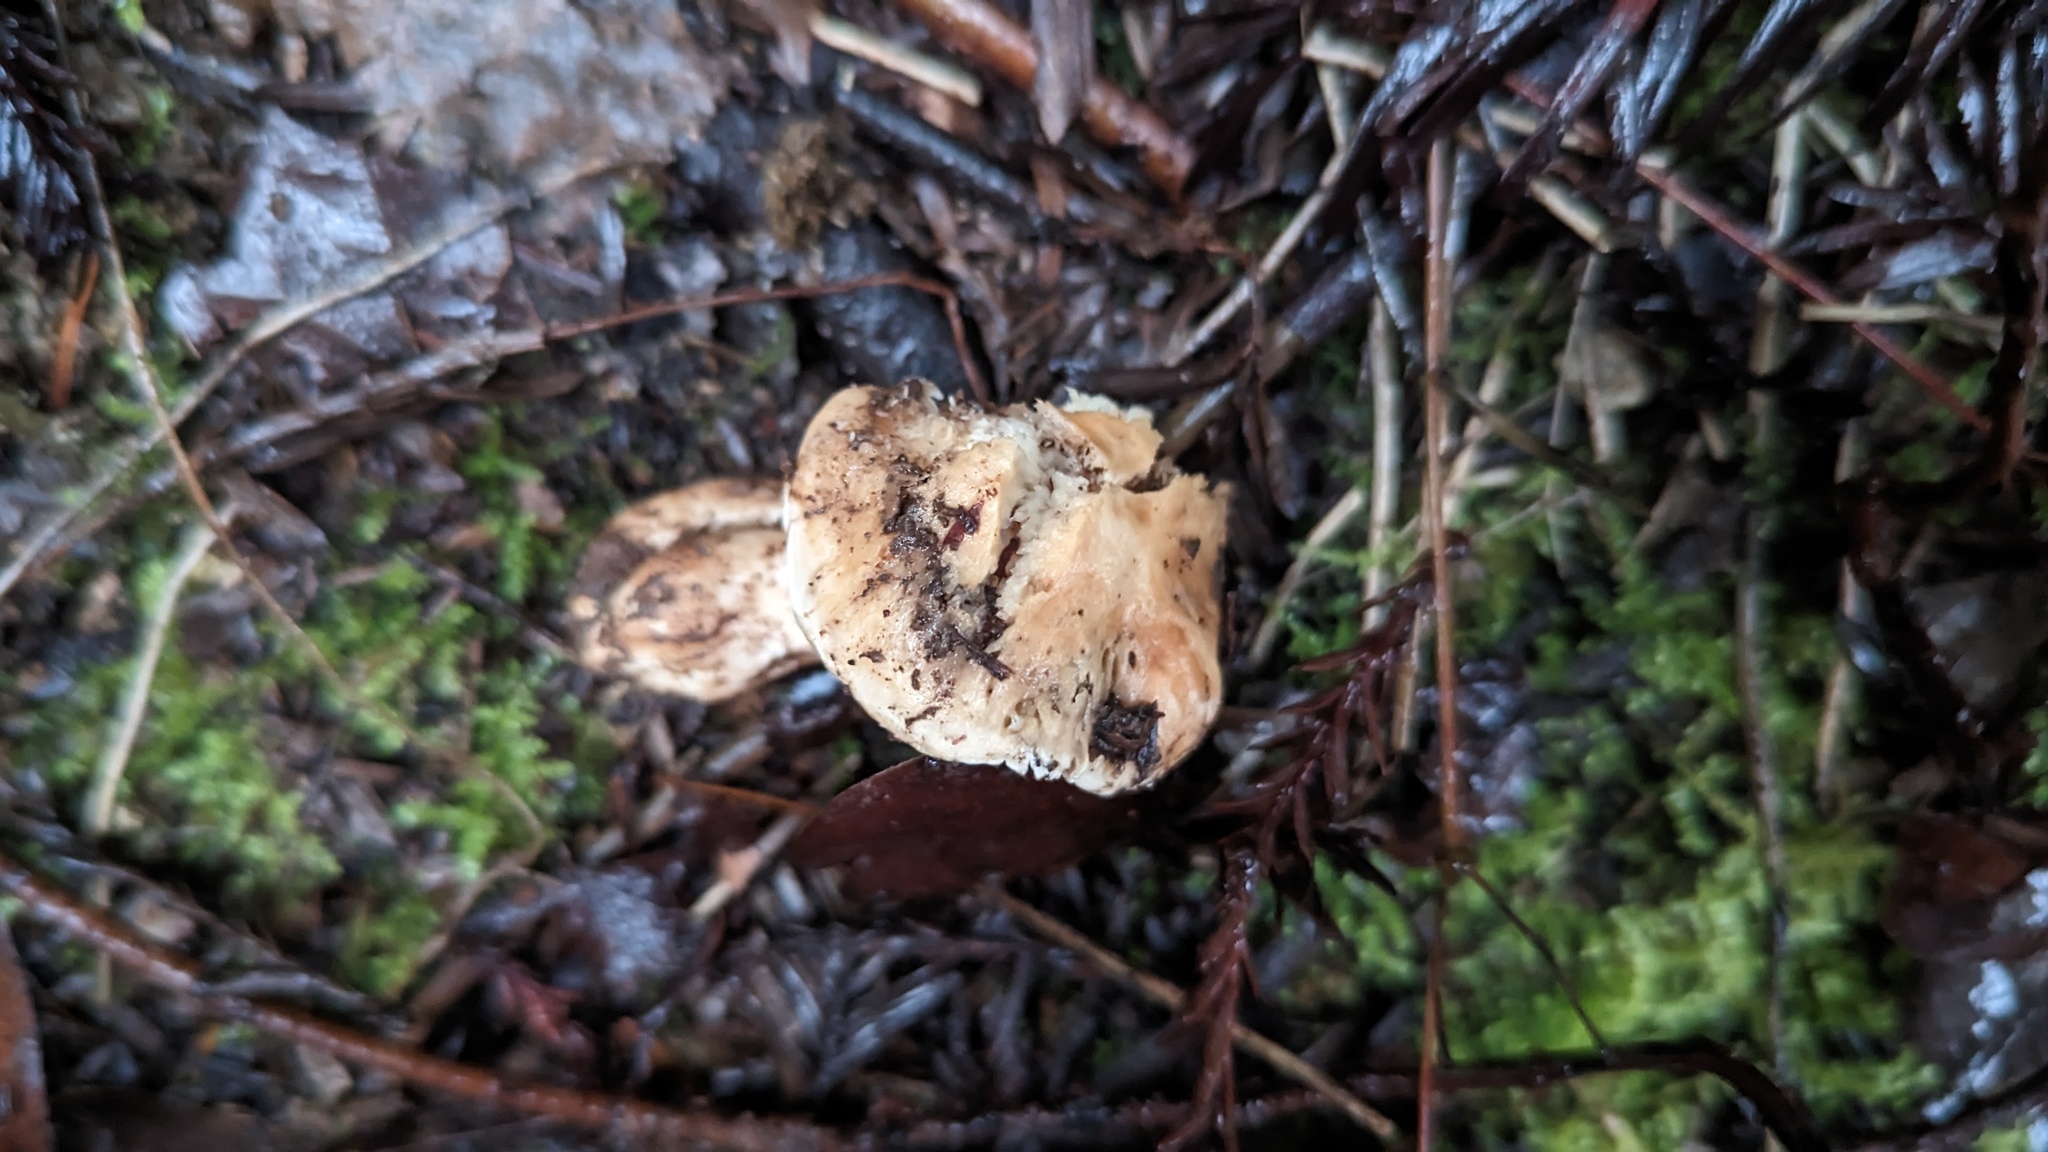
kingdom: Fungi
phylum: Basidiomycota
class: Agaricomycetes
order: Agaricales
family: Hygrophoraceae
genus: Cuphophyllus
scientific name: Cuphophyllus pratensis
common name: Meadow waxcap
